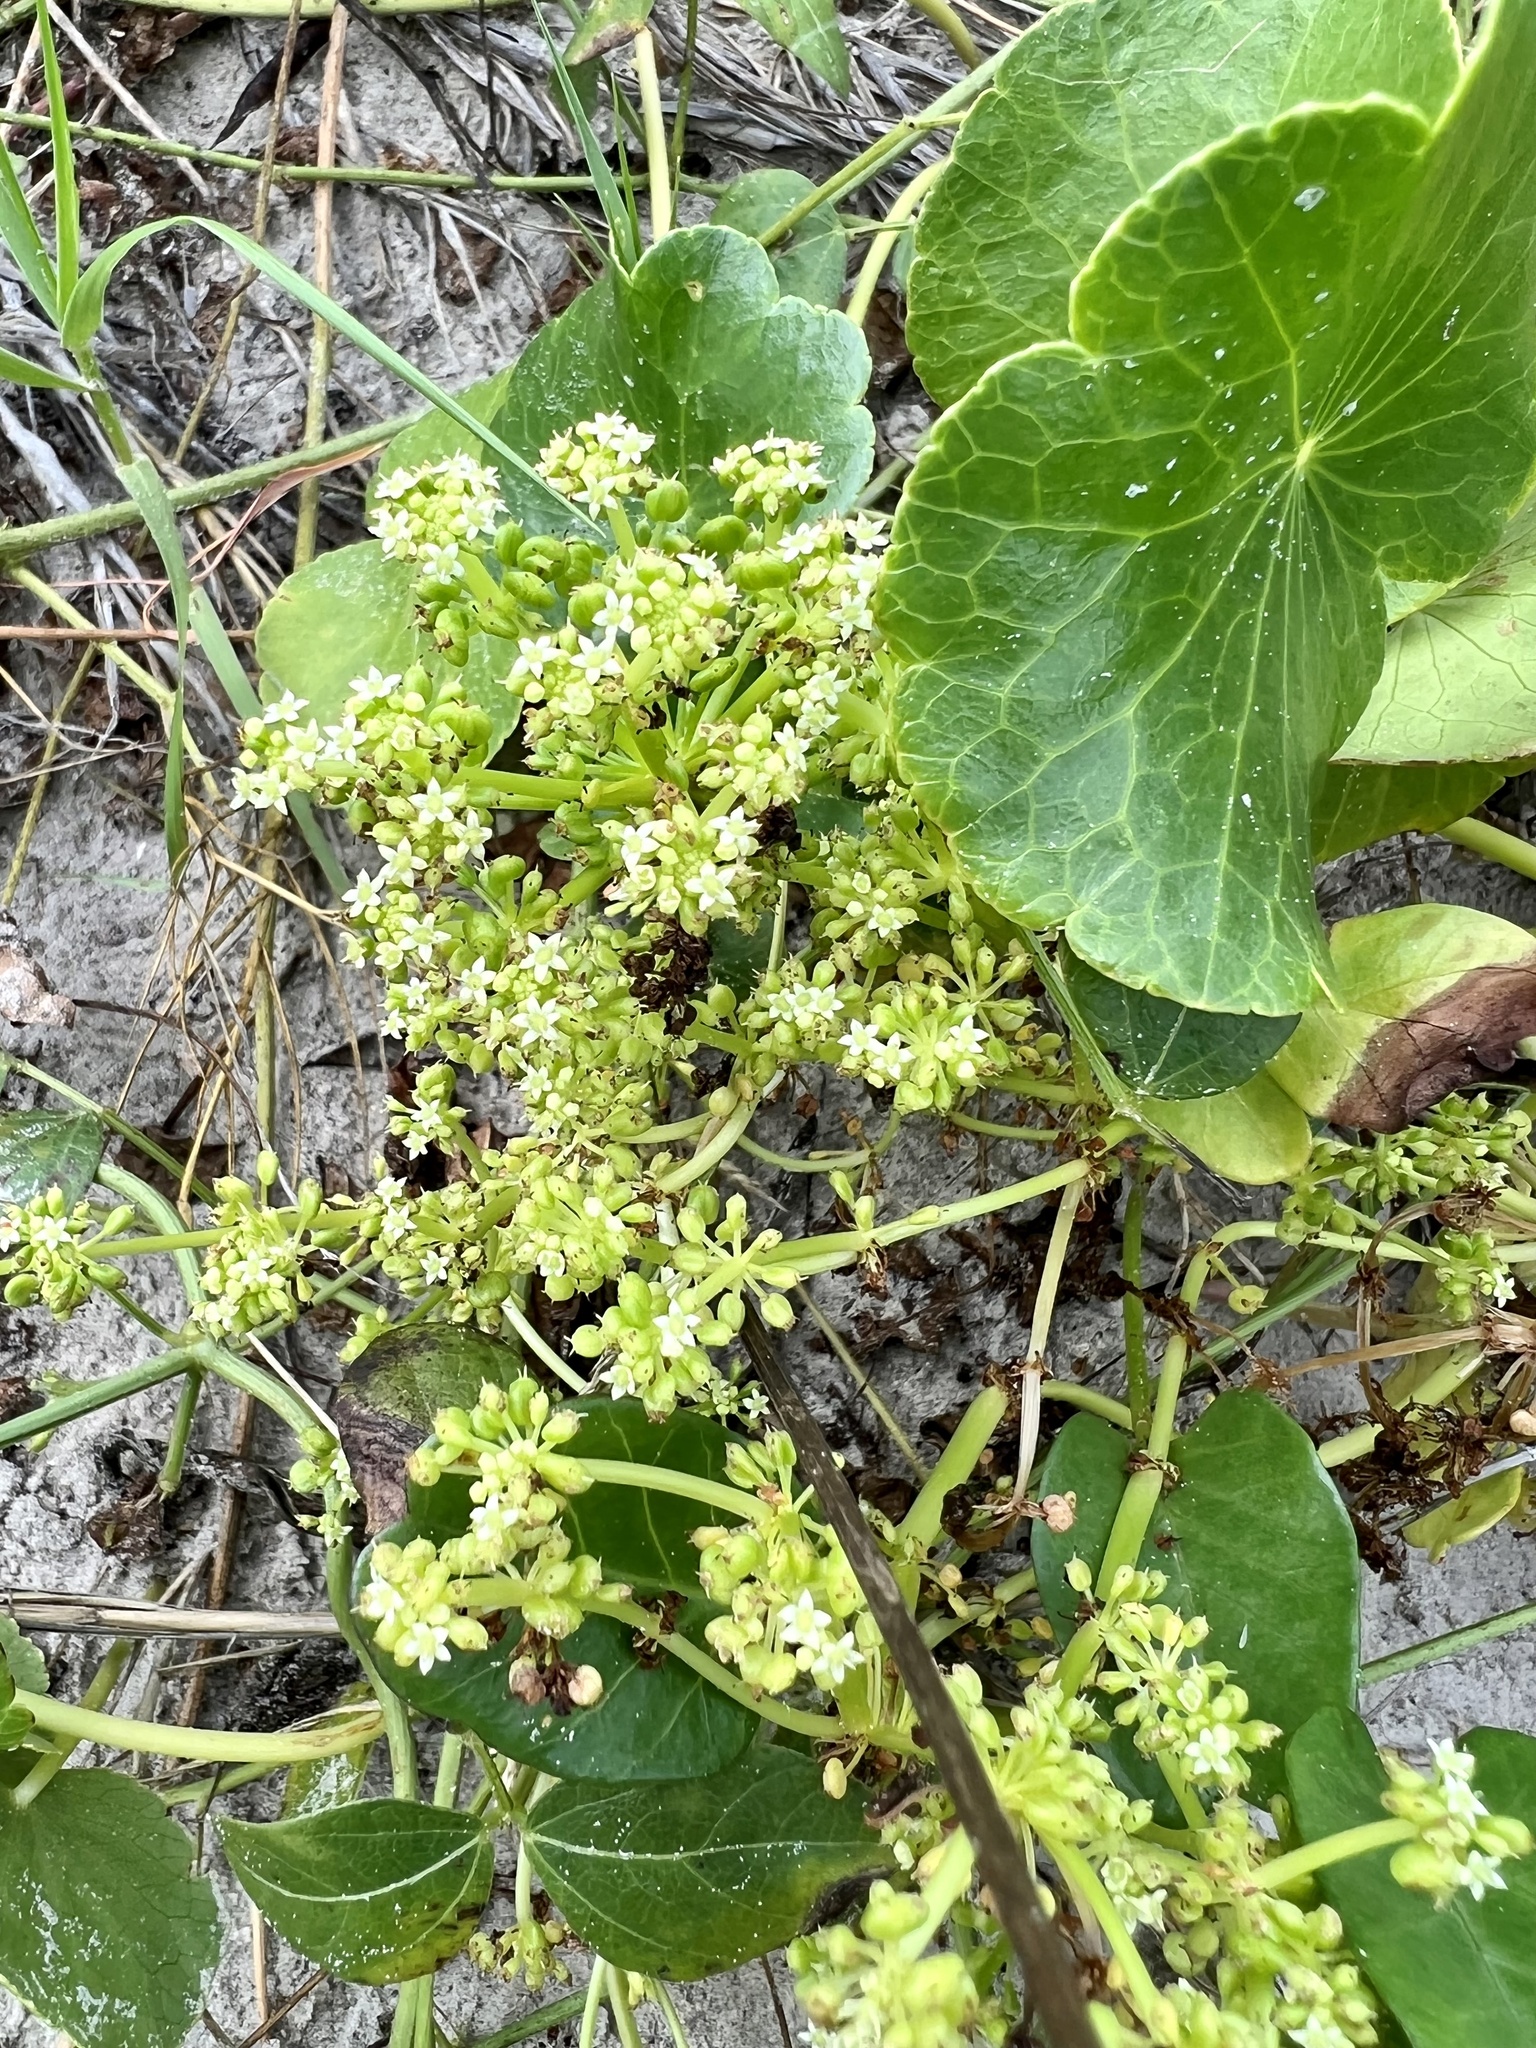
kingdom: Plantae
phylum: Tracheophyta
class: Magnoliopsida
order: Apiales
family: Araliaceae
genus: Hydrocotyle
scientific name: Hydrocotyle bonariensis
